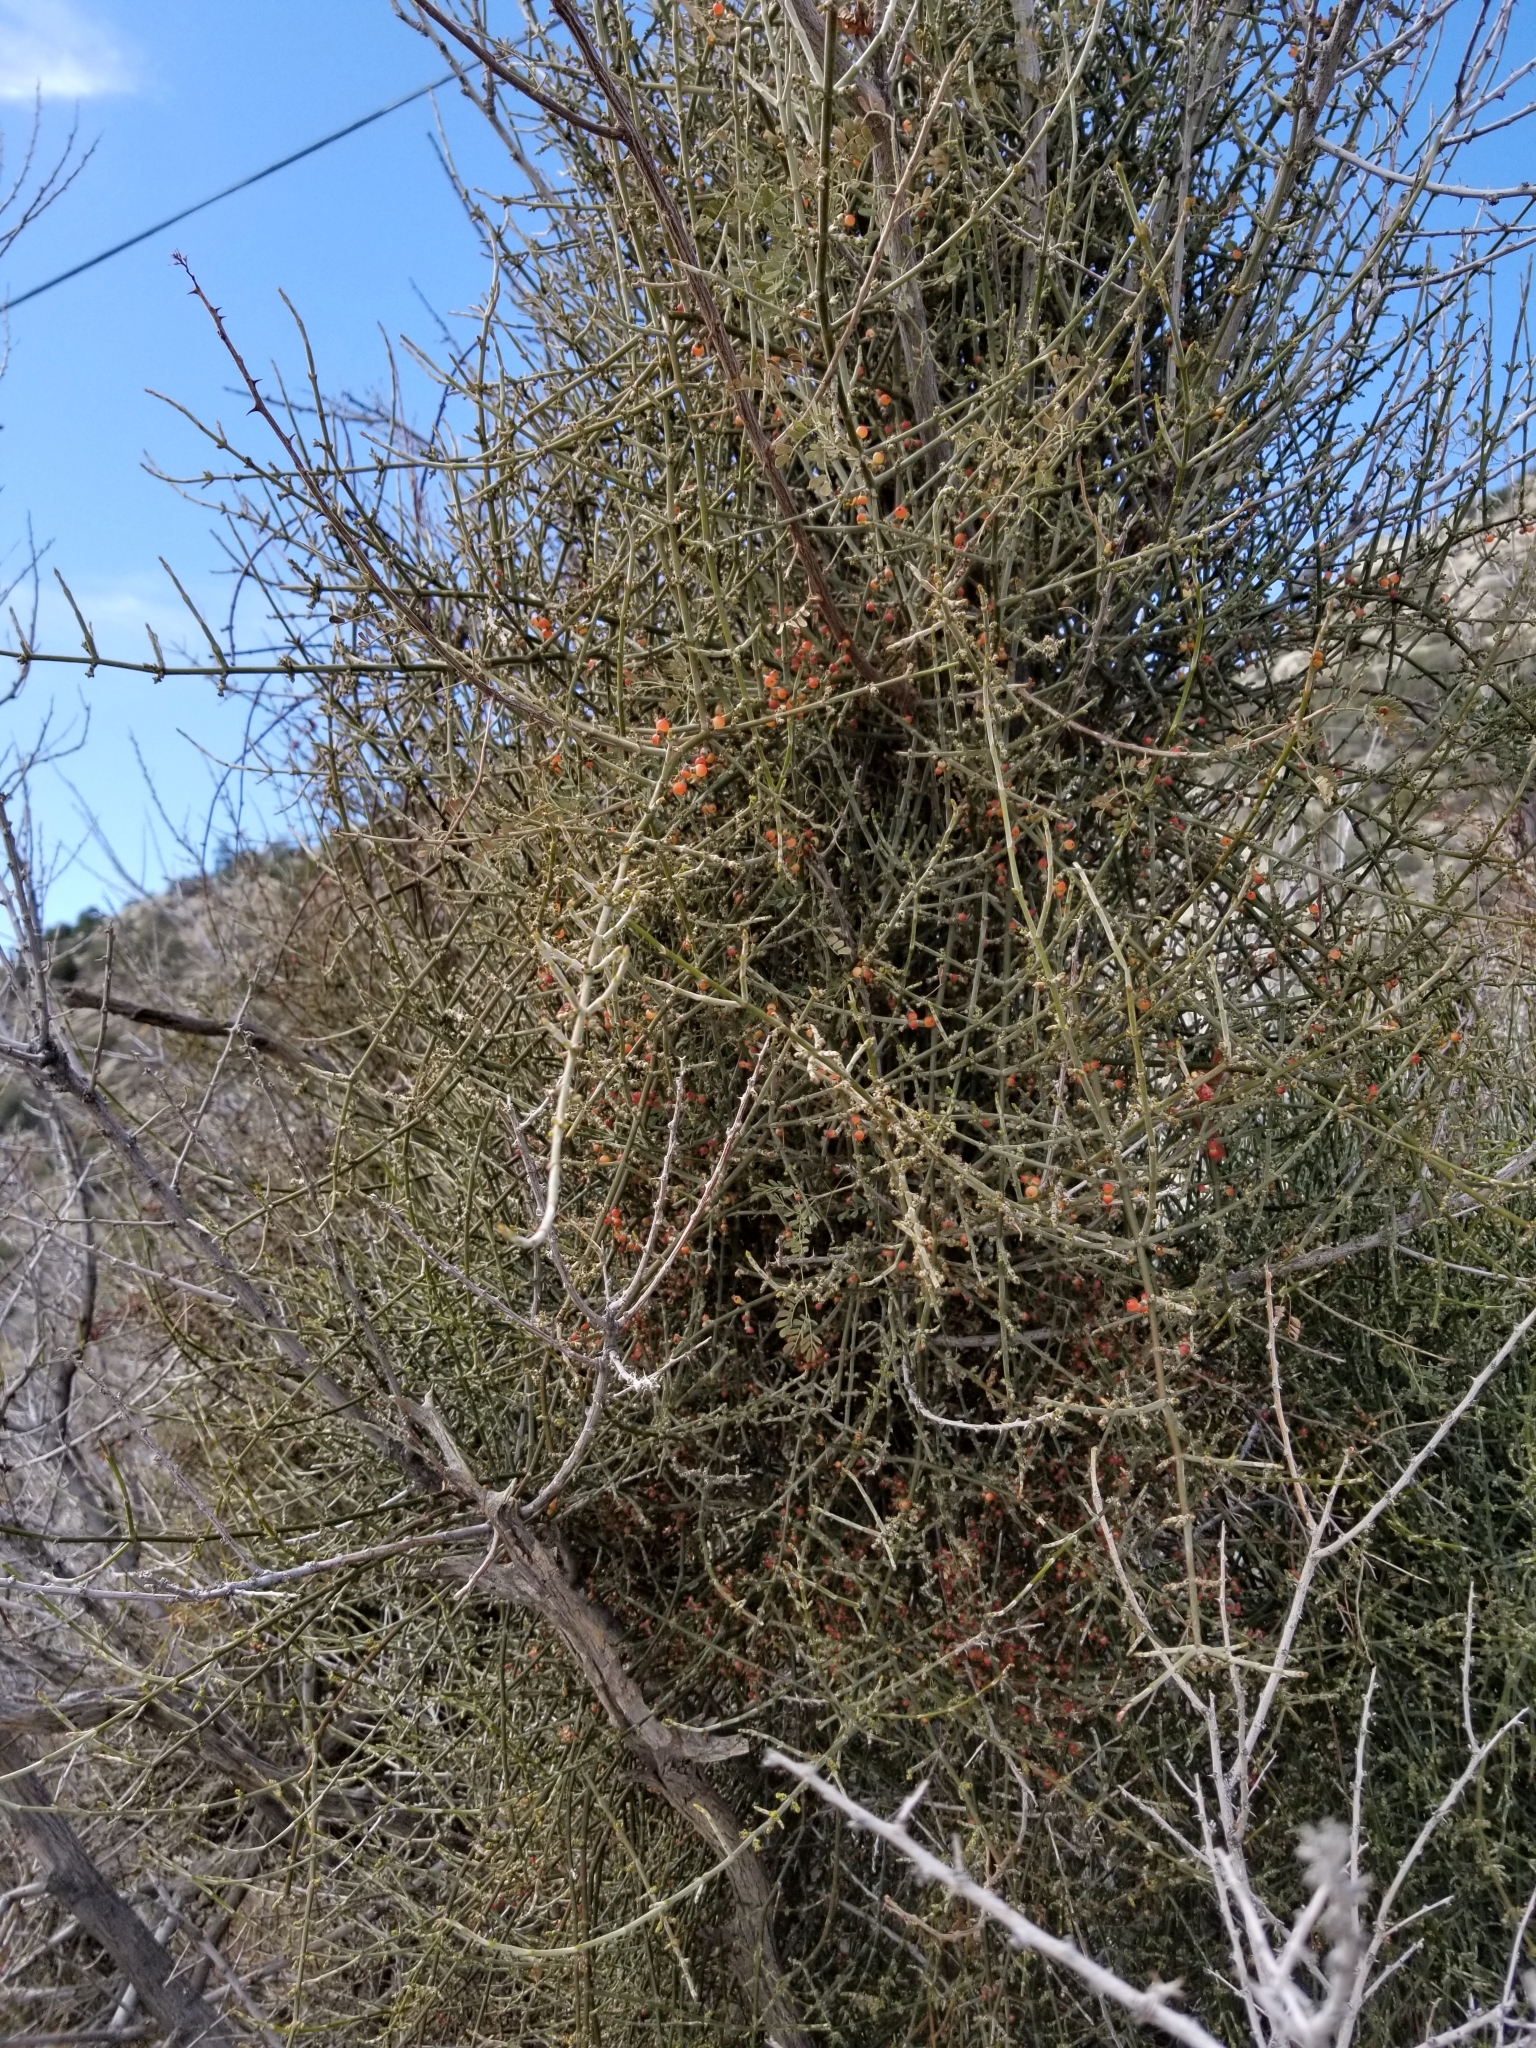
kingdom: Plantae
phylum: Tracheophyta
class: Magnoliopsida
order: Santalales
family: Viscaceae
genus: Phoradendron
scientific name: Phoradendron californicum
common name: Acacia mistletoe
